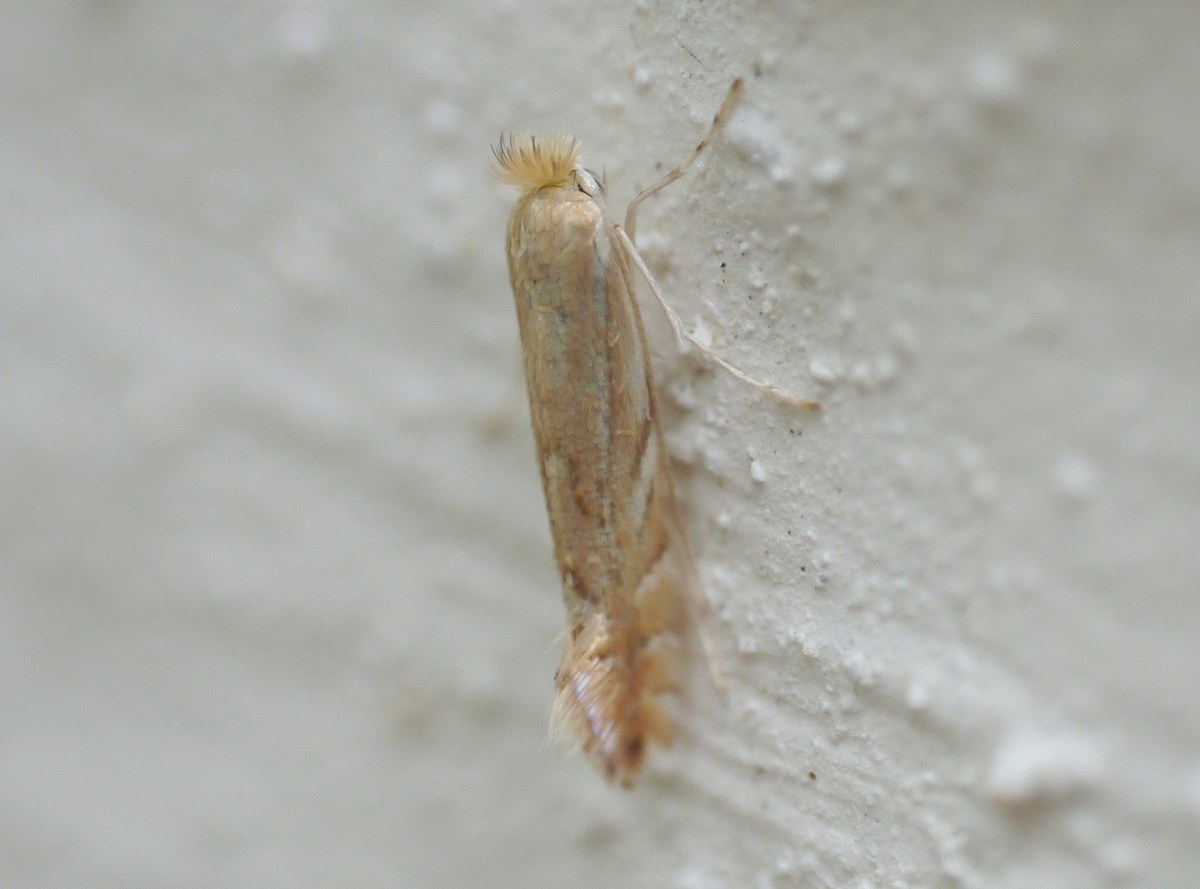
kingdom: Animalia
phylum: Arthropoda
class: Insecta
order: Lepidoptera
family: Gracillariidae
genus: Phyllonorycter
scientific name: Phyllonorycter quercifoliella
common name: Common oak midget
